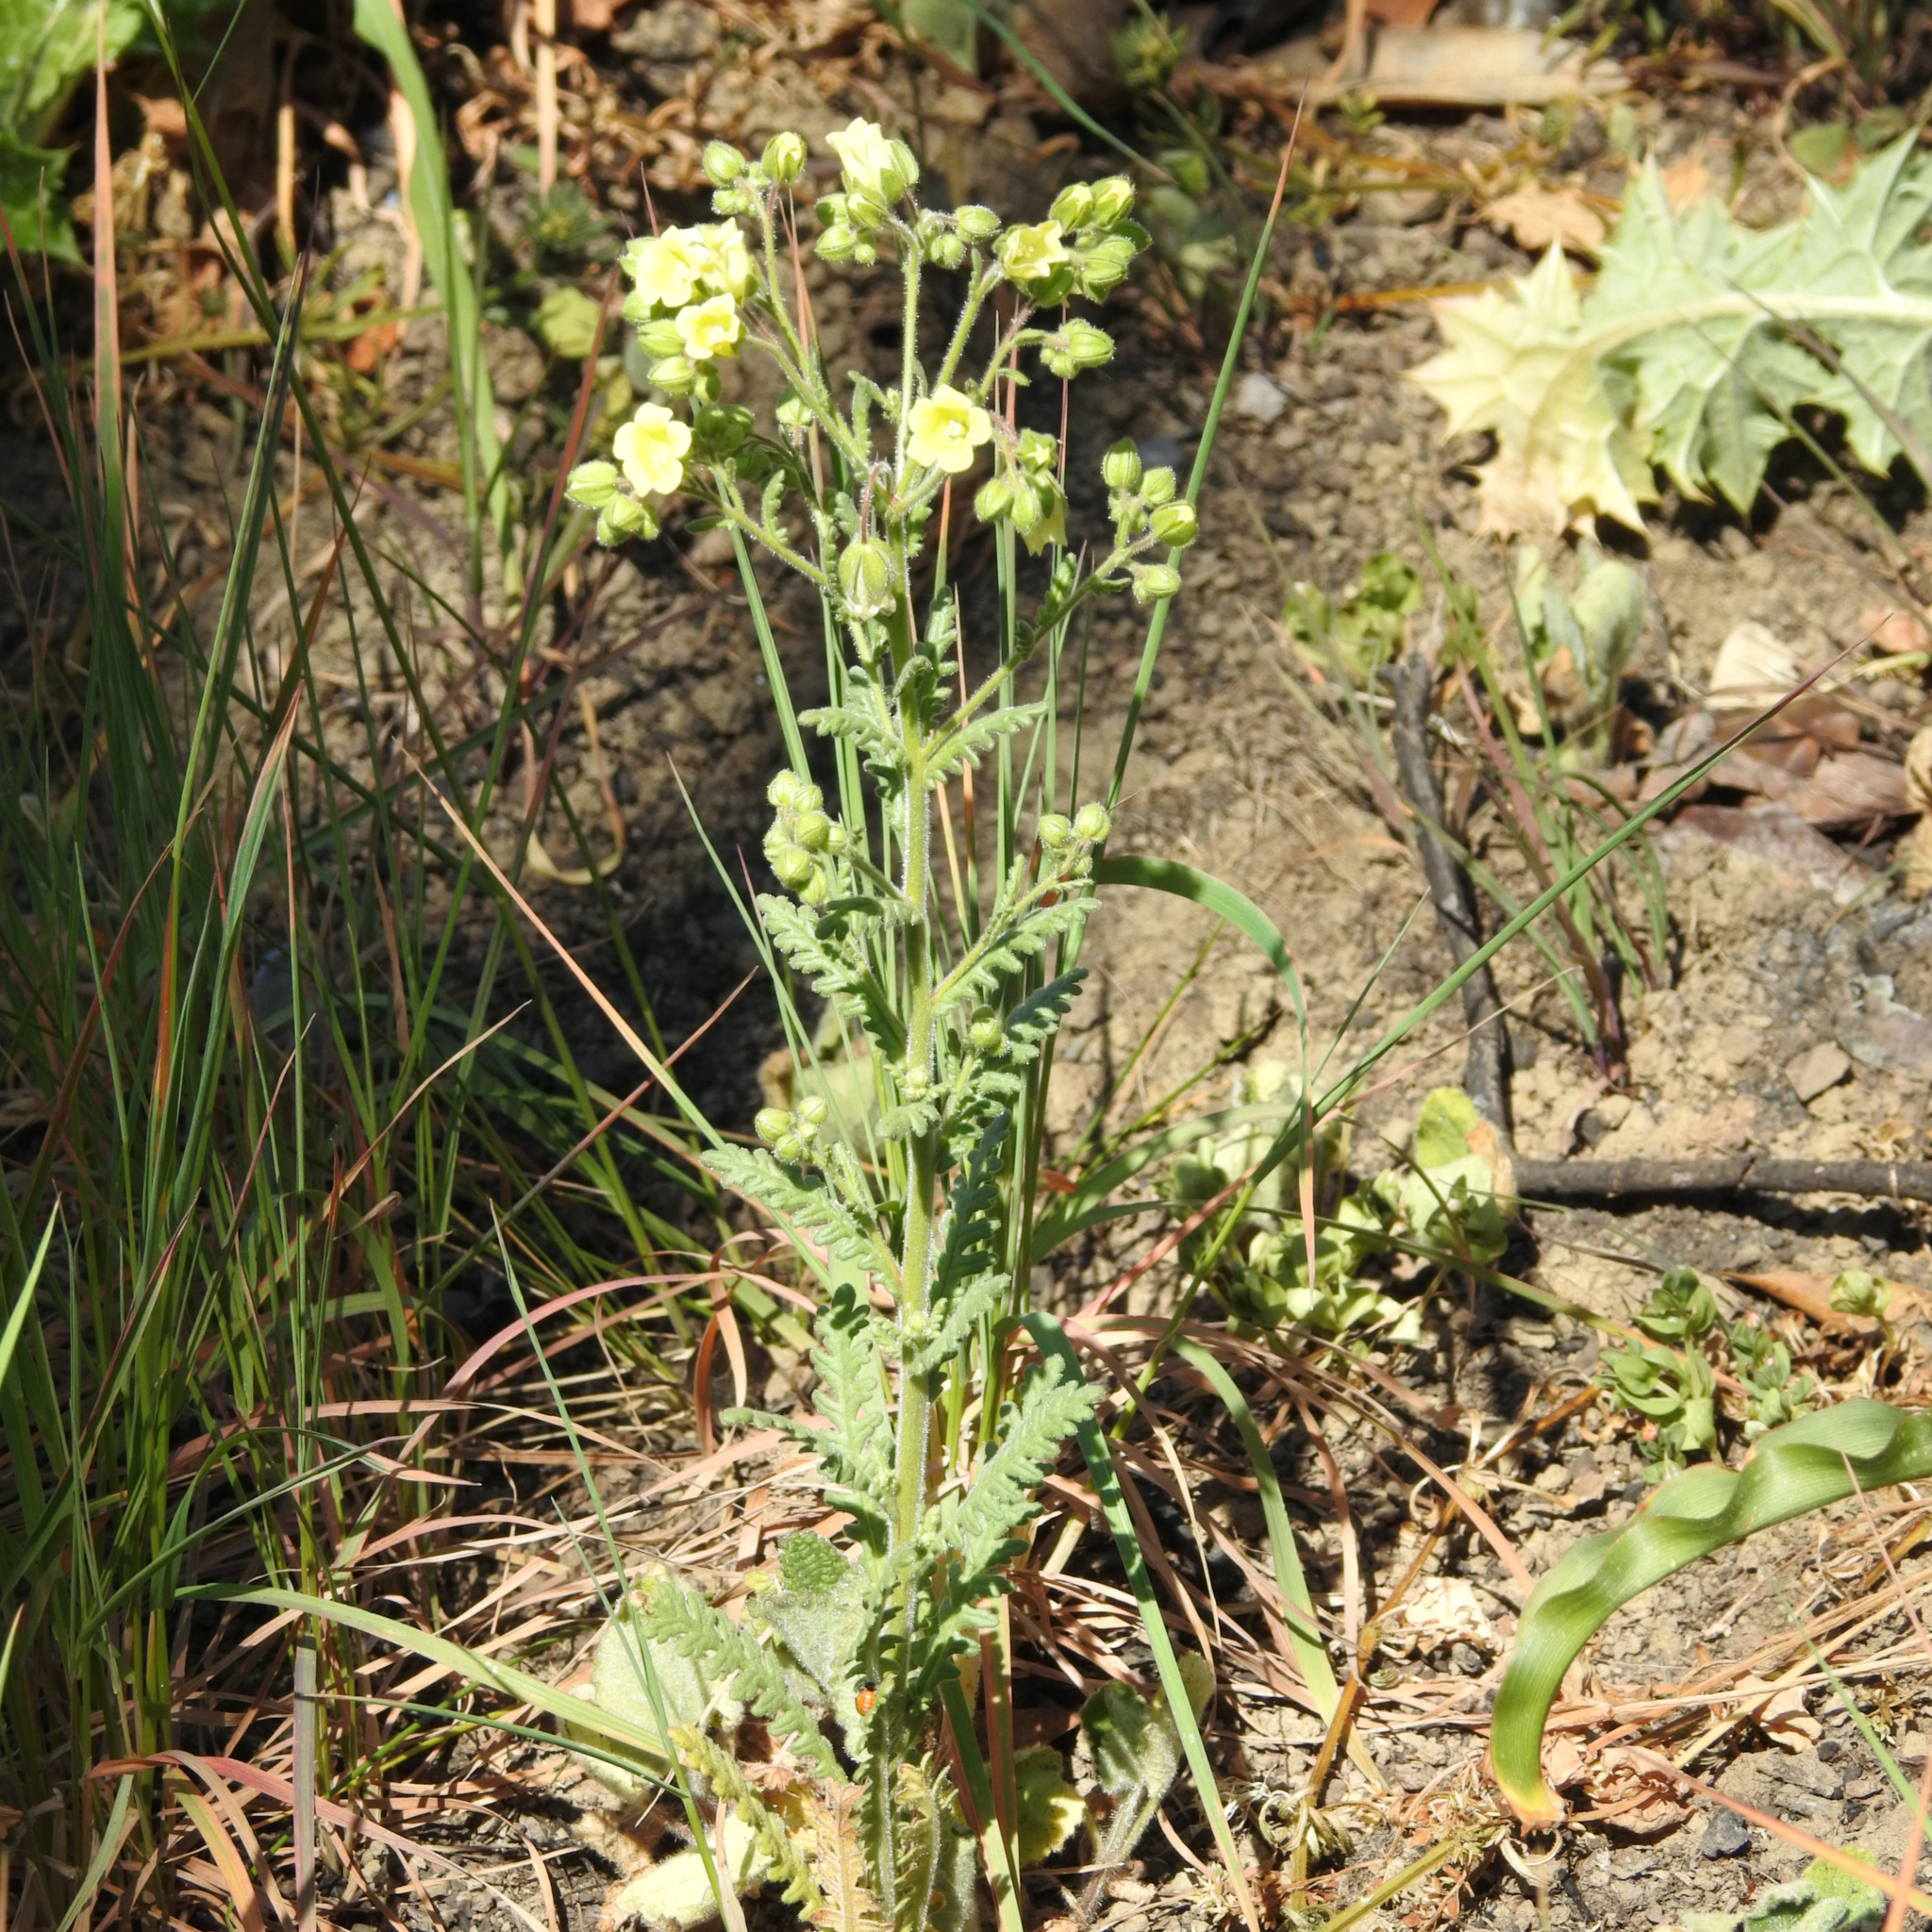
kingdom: Plantae
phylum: Tracheophyta
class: Magnoliopsida
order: Boraginales
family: Hydrophyllaceae
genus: Emmenanthe
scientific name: Emmenanthe penduliflora
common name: Whispering-bells
